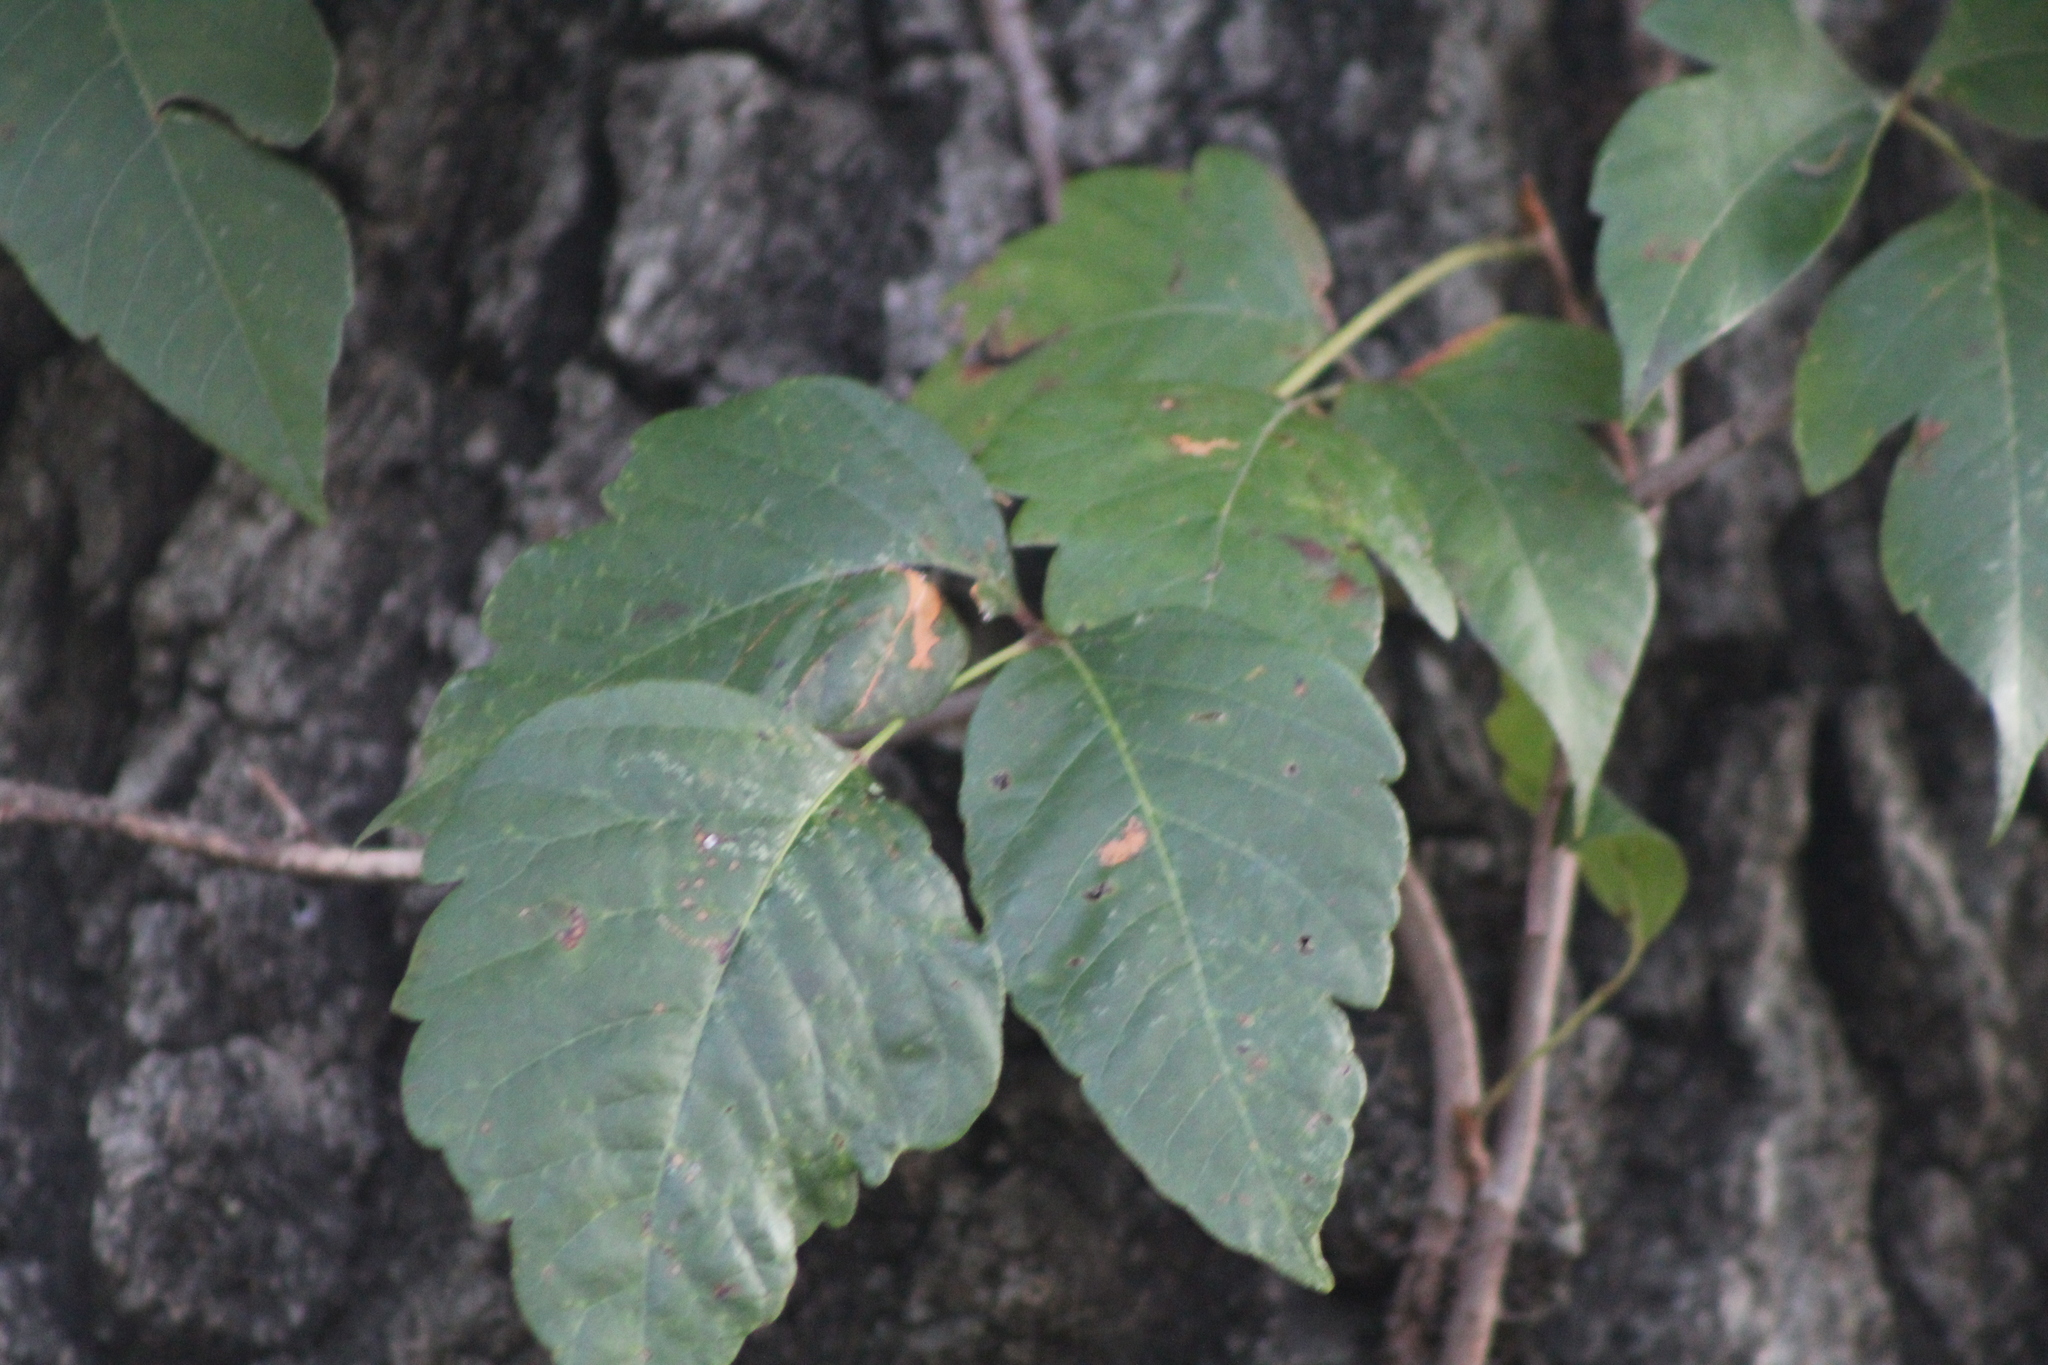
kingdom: Plantae
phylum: Tracheophyta
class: Magnoliopsida
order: Sapindales
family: Anacardiaceae
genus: Toxicodendron
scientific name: Toxicodendron radicans
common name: Poison ivy
